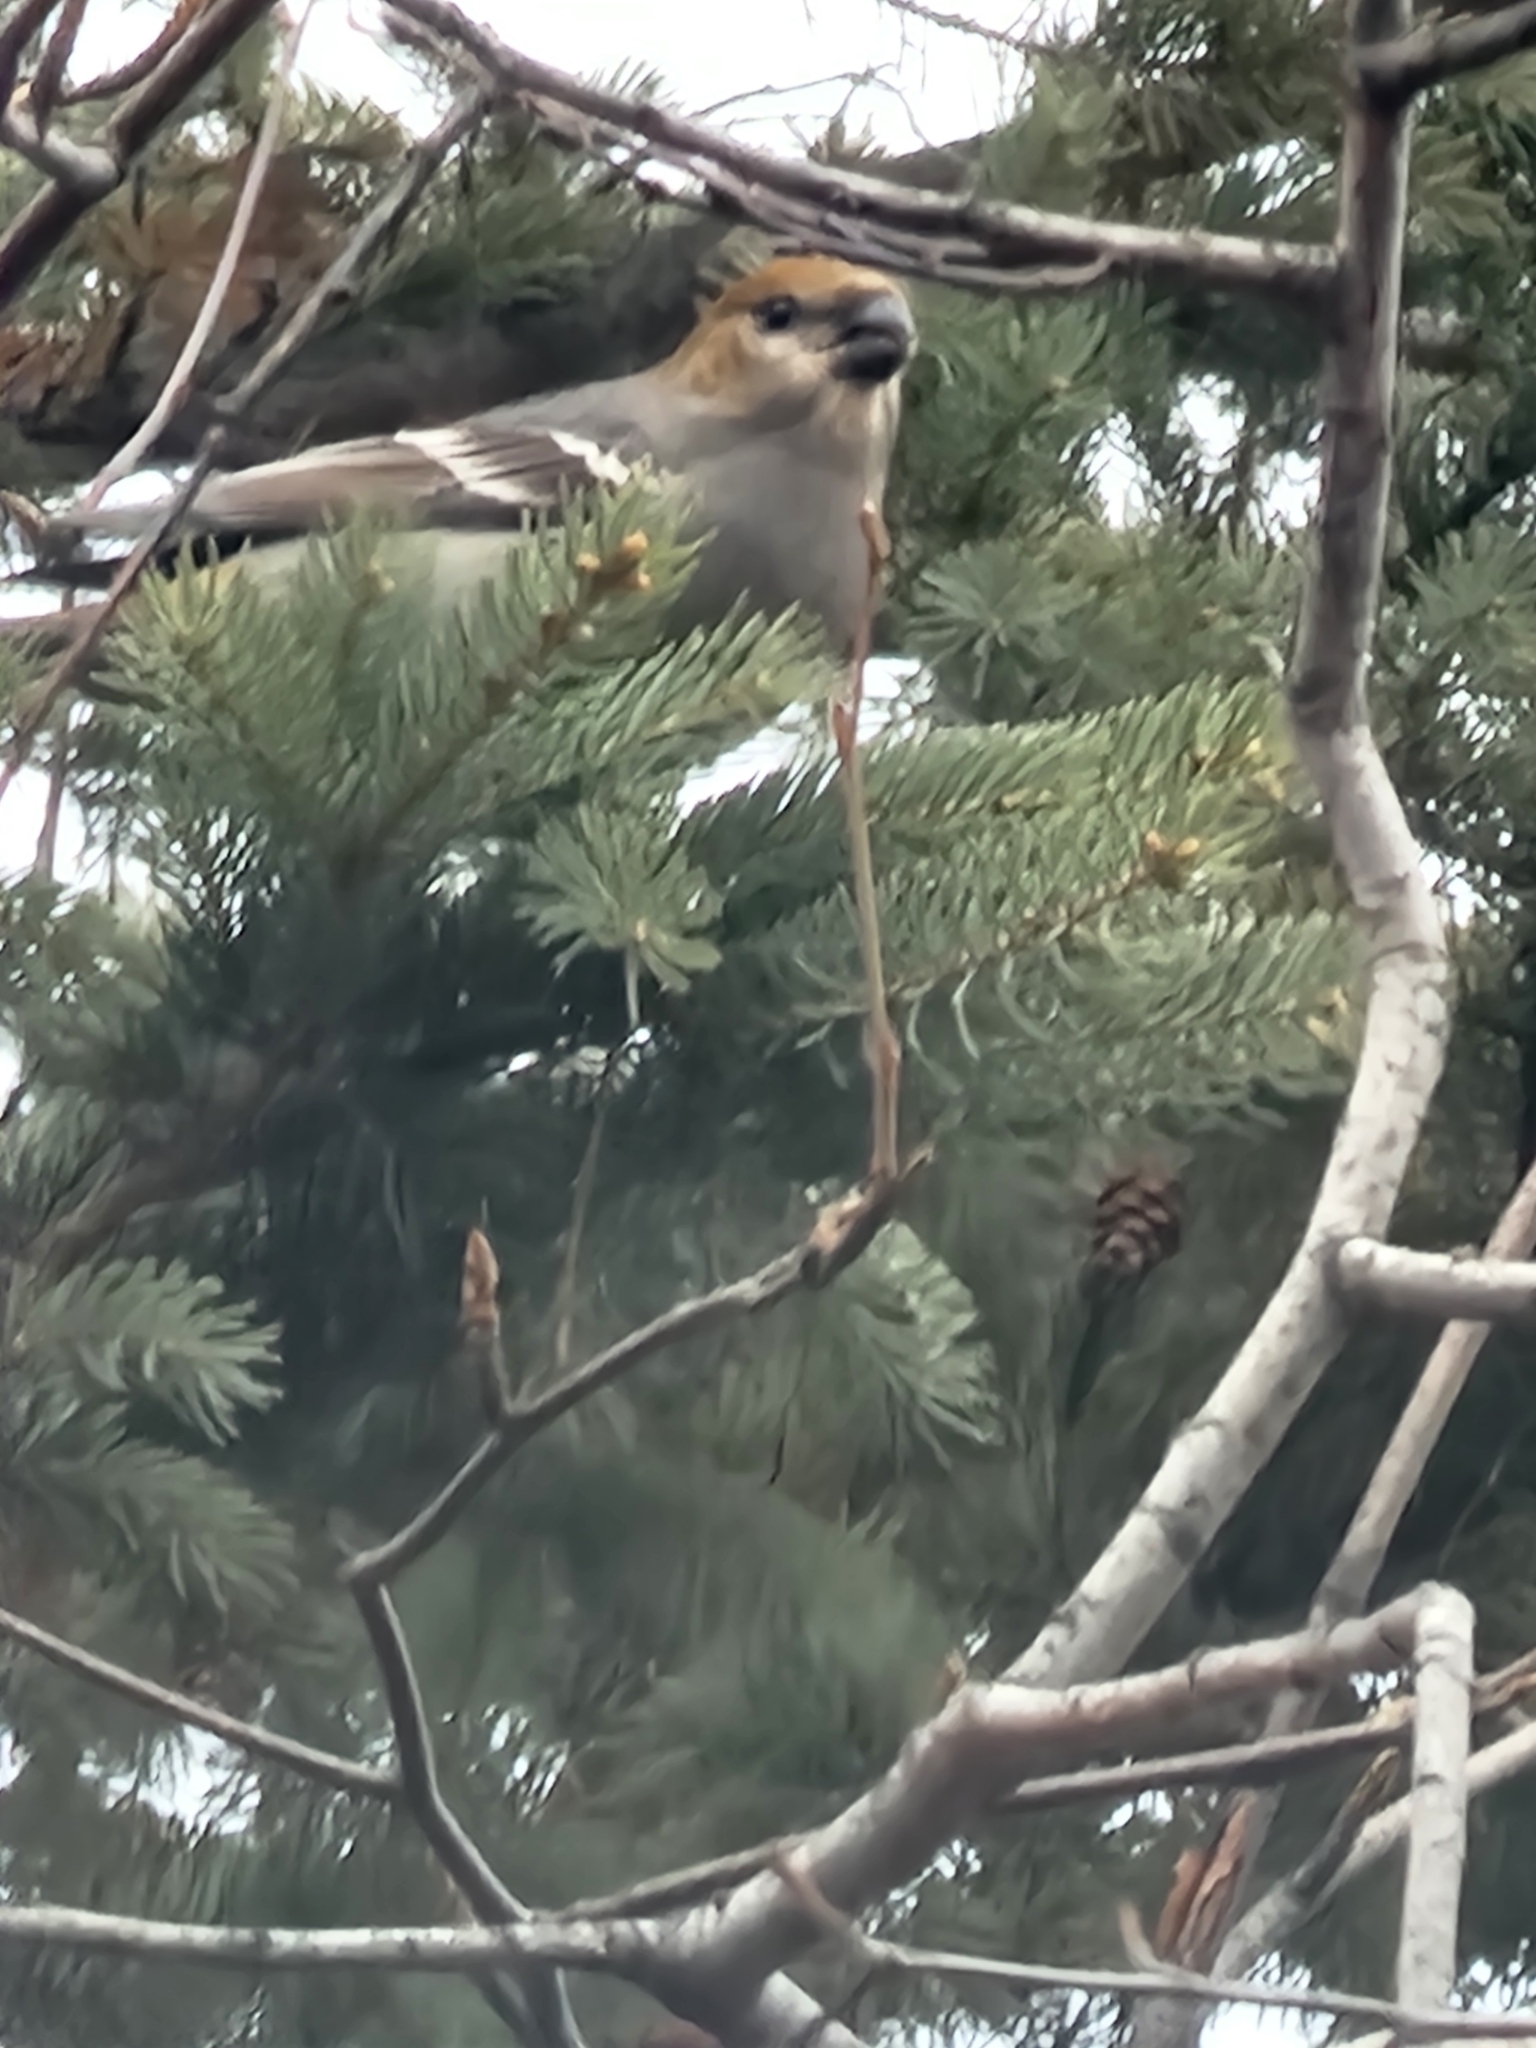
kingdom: Animalia
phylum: Chordata
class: Aves
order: Passeriformes
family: Fringillidae
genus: Pinicola
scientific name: Pinicola enucleator
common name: Pine grosbeak
